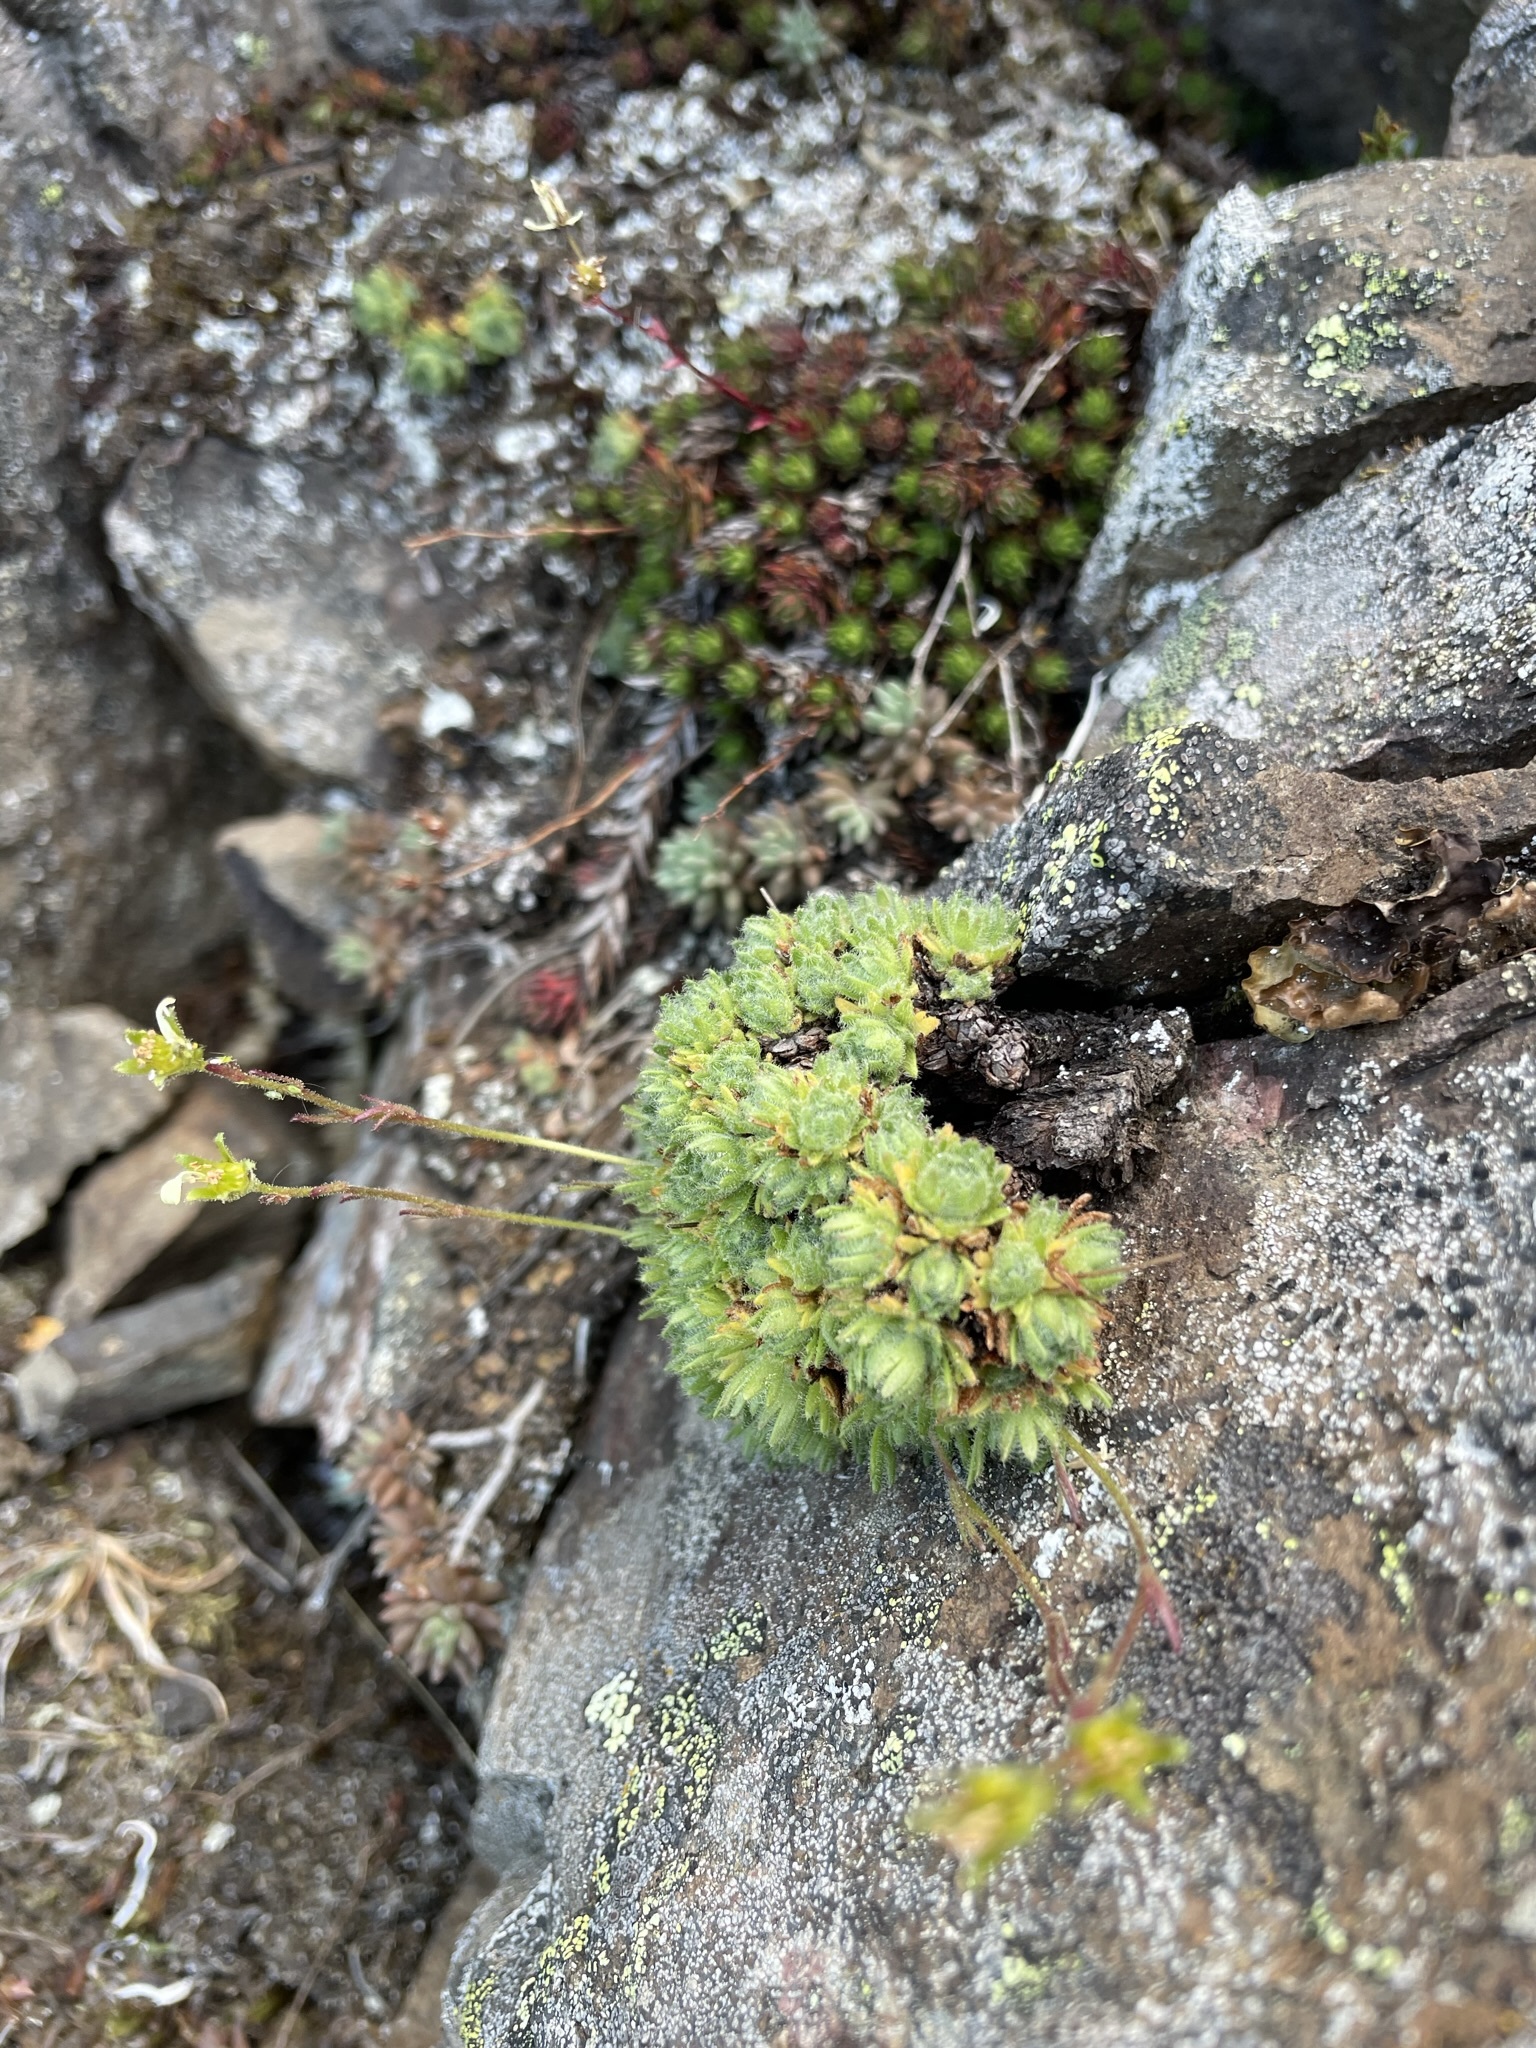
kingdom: Plantae
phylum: Tracheophyta
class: Magnoliopsida
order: Saxifragales
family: Saxifragaceae
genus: Saxifraga
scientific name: Saxifraga cespitosa
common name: Tufted saxifrage
